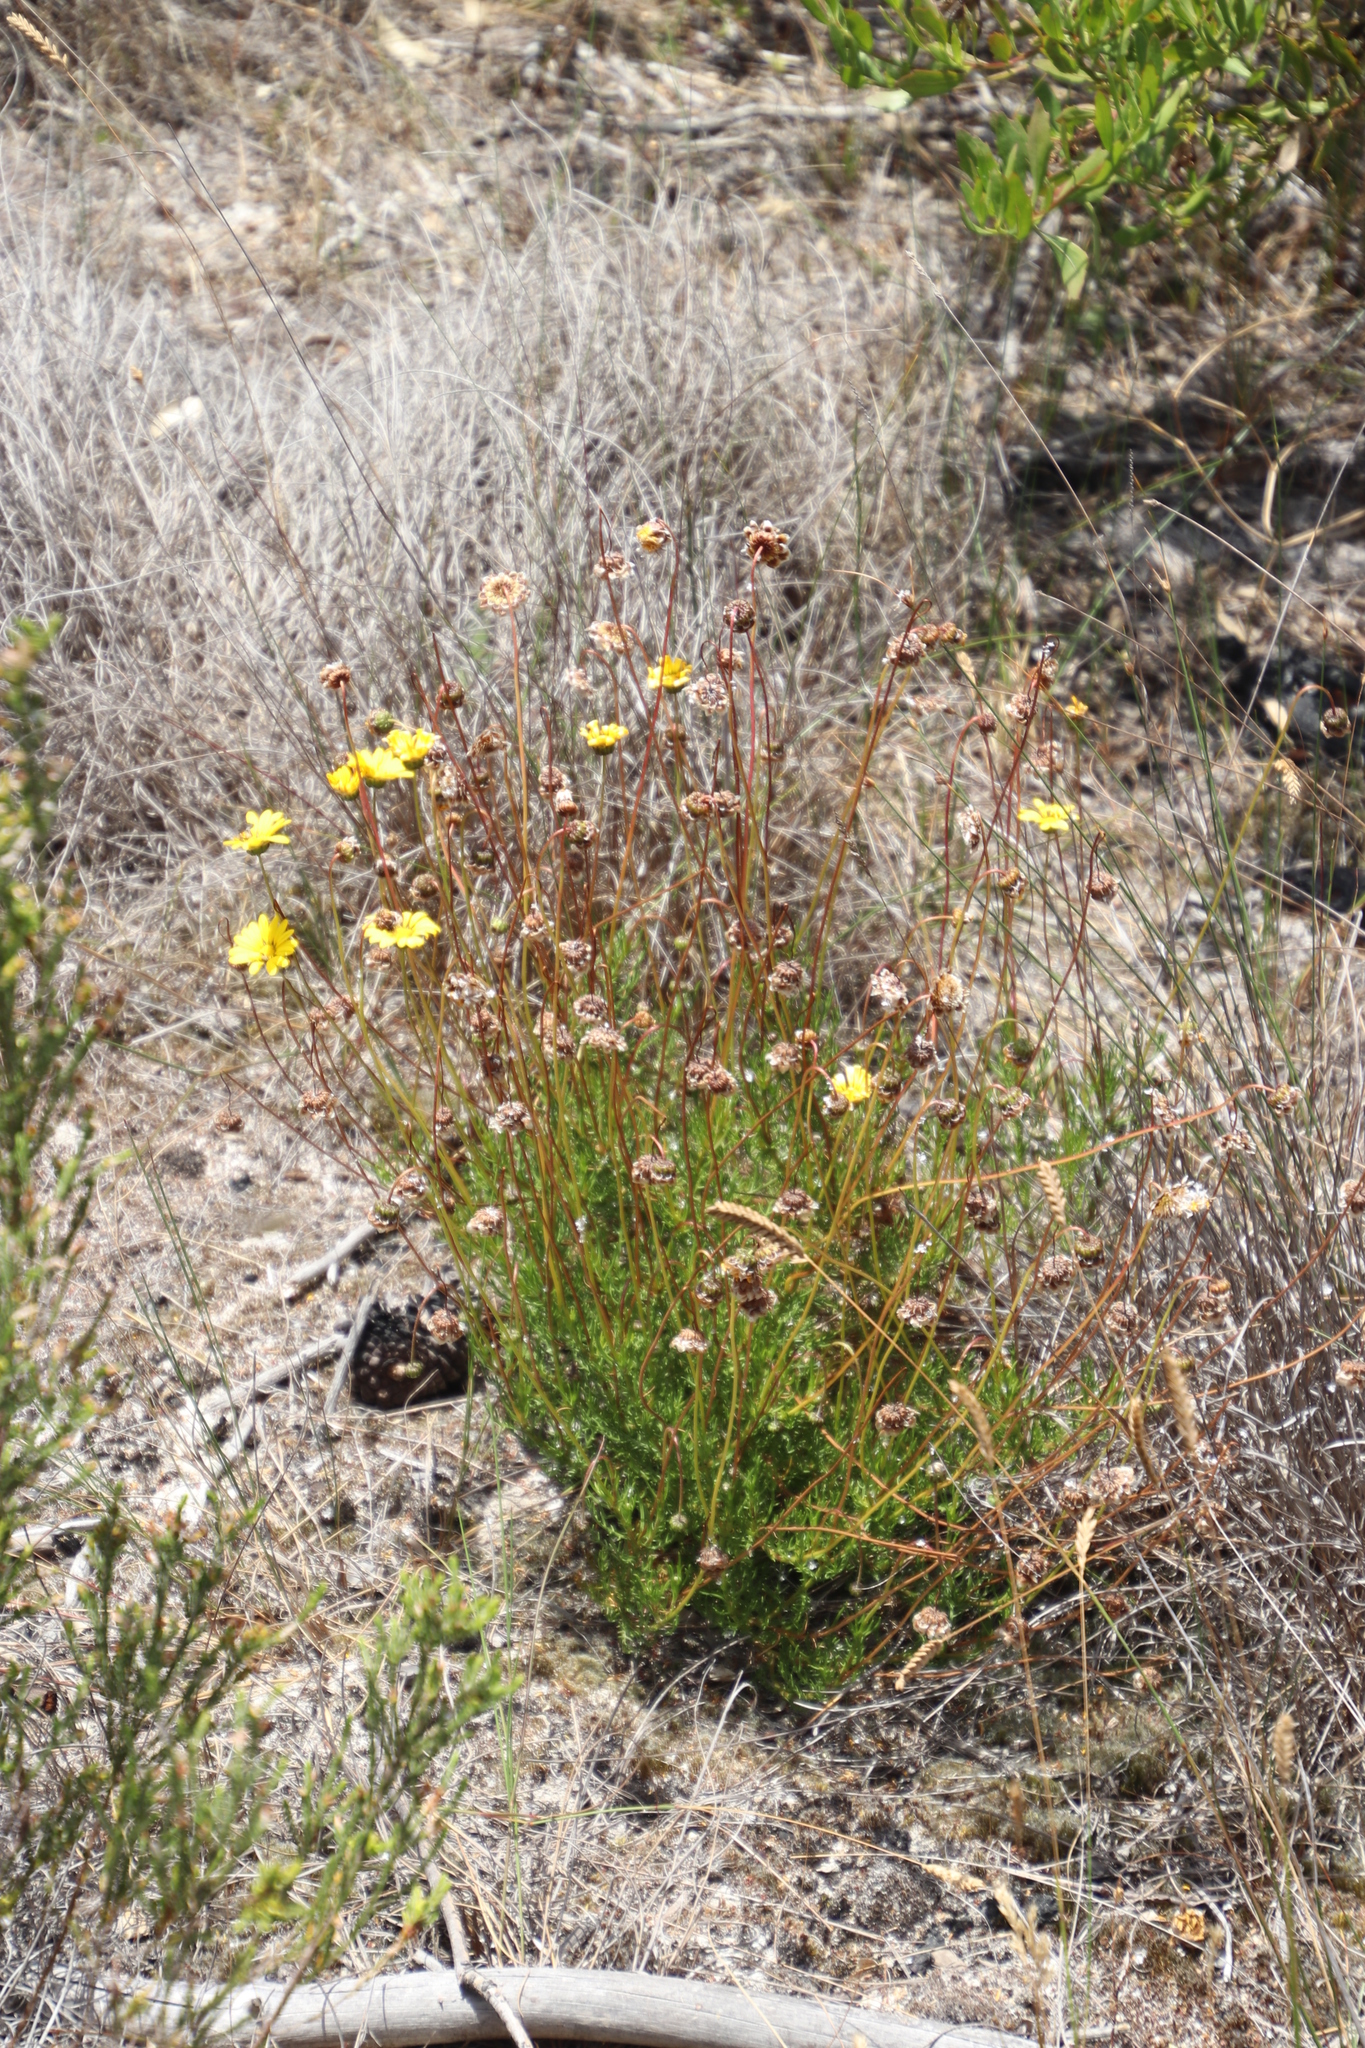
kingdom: Plantae
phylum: Tracheophyta
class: Magnoliopsida
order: Asterales
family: Asteraceae
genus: Ursinia
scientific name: Ursinia paleacea
